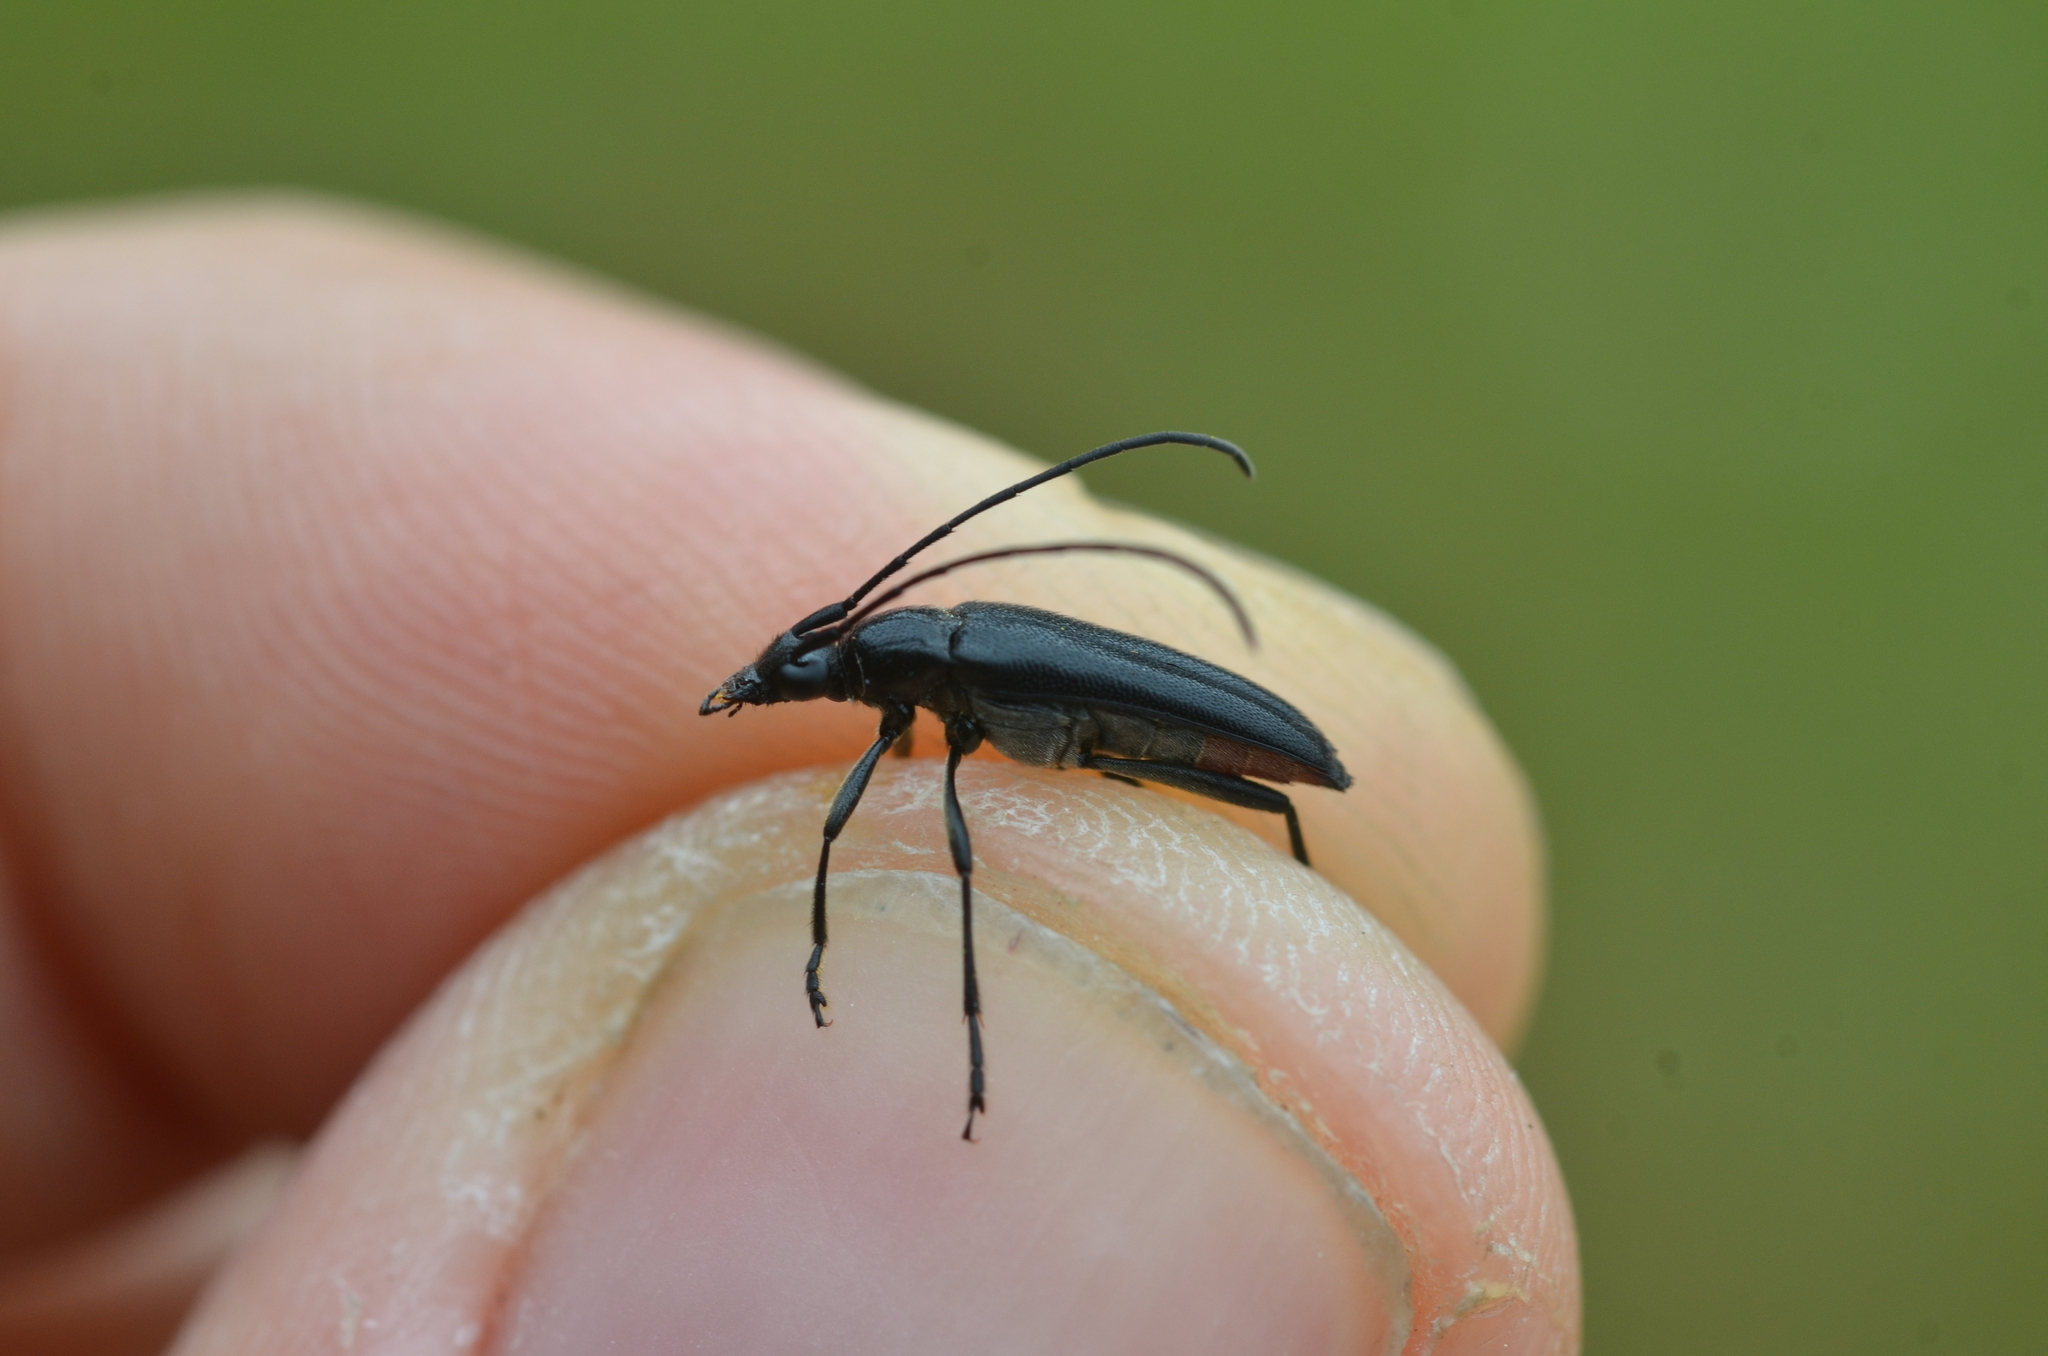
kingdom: Animalia
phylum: Arthropoda
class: Insecta
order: Coleoptera
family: Cerambycidae
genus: Stenurella
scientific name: Stenurella nigra
